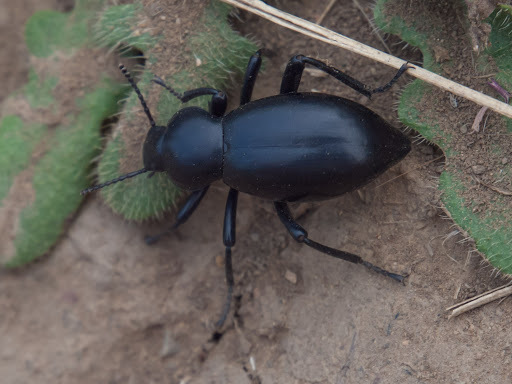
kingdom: Animalia
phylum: Arthropoda
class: Insecta
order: Coleoptera
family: Tenebrionidae
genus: Eleodes
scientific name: Eleodes dentipes
